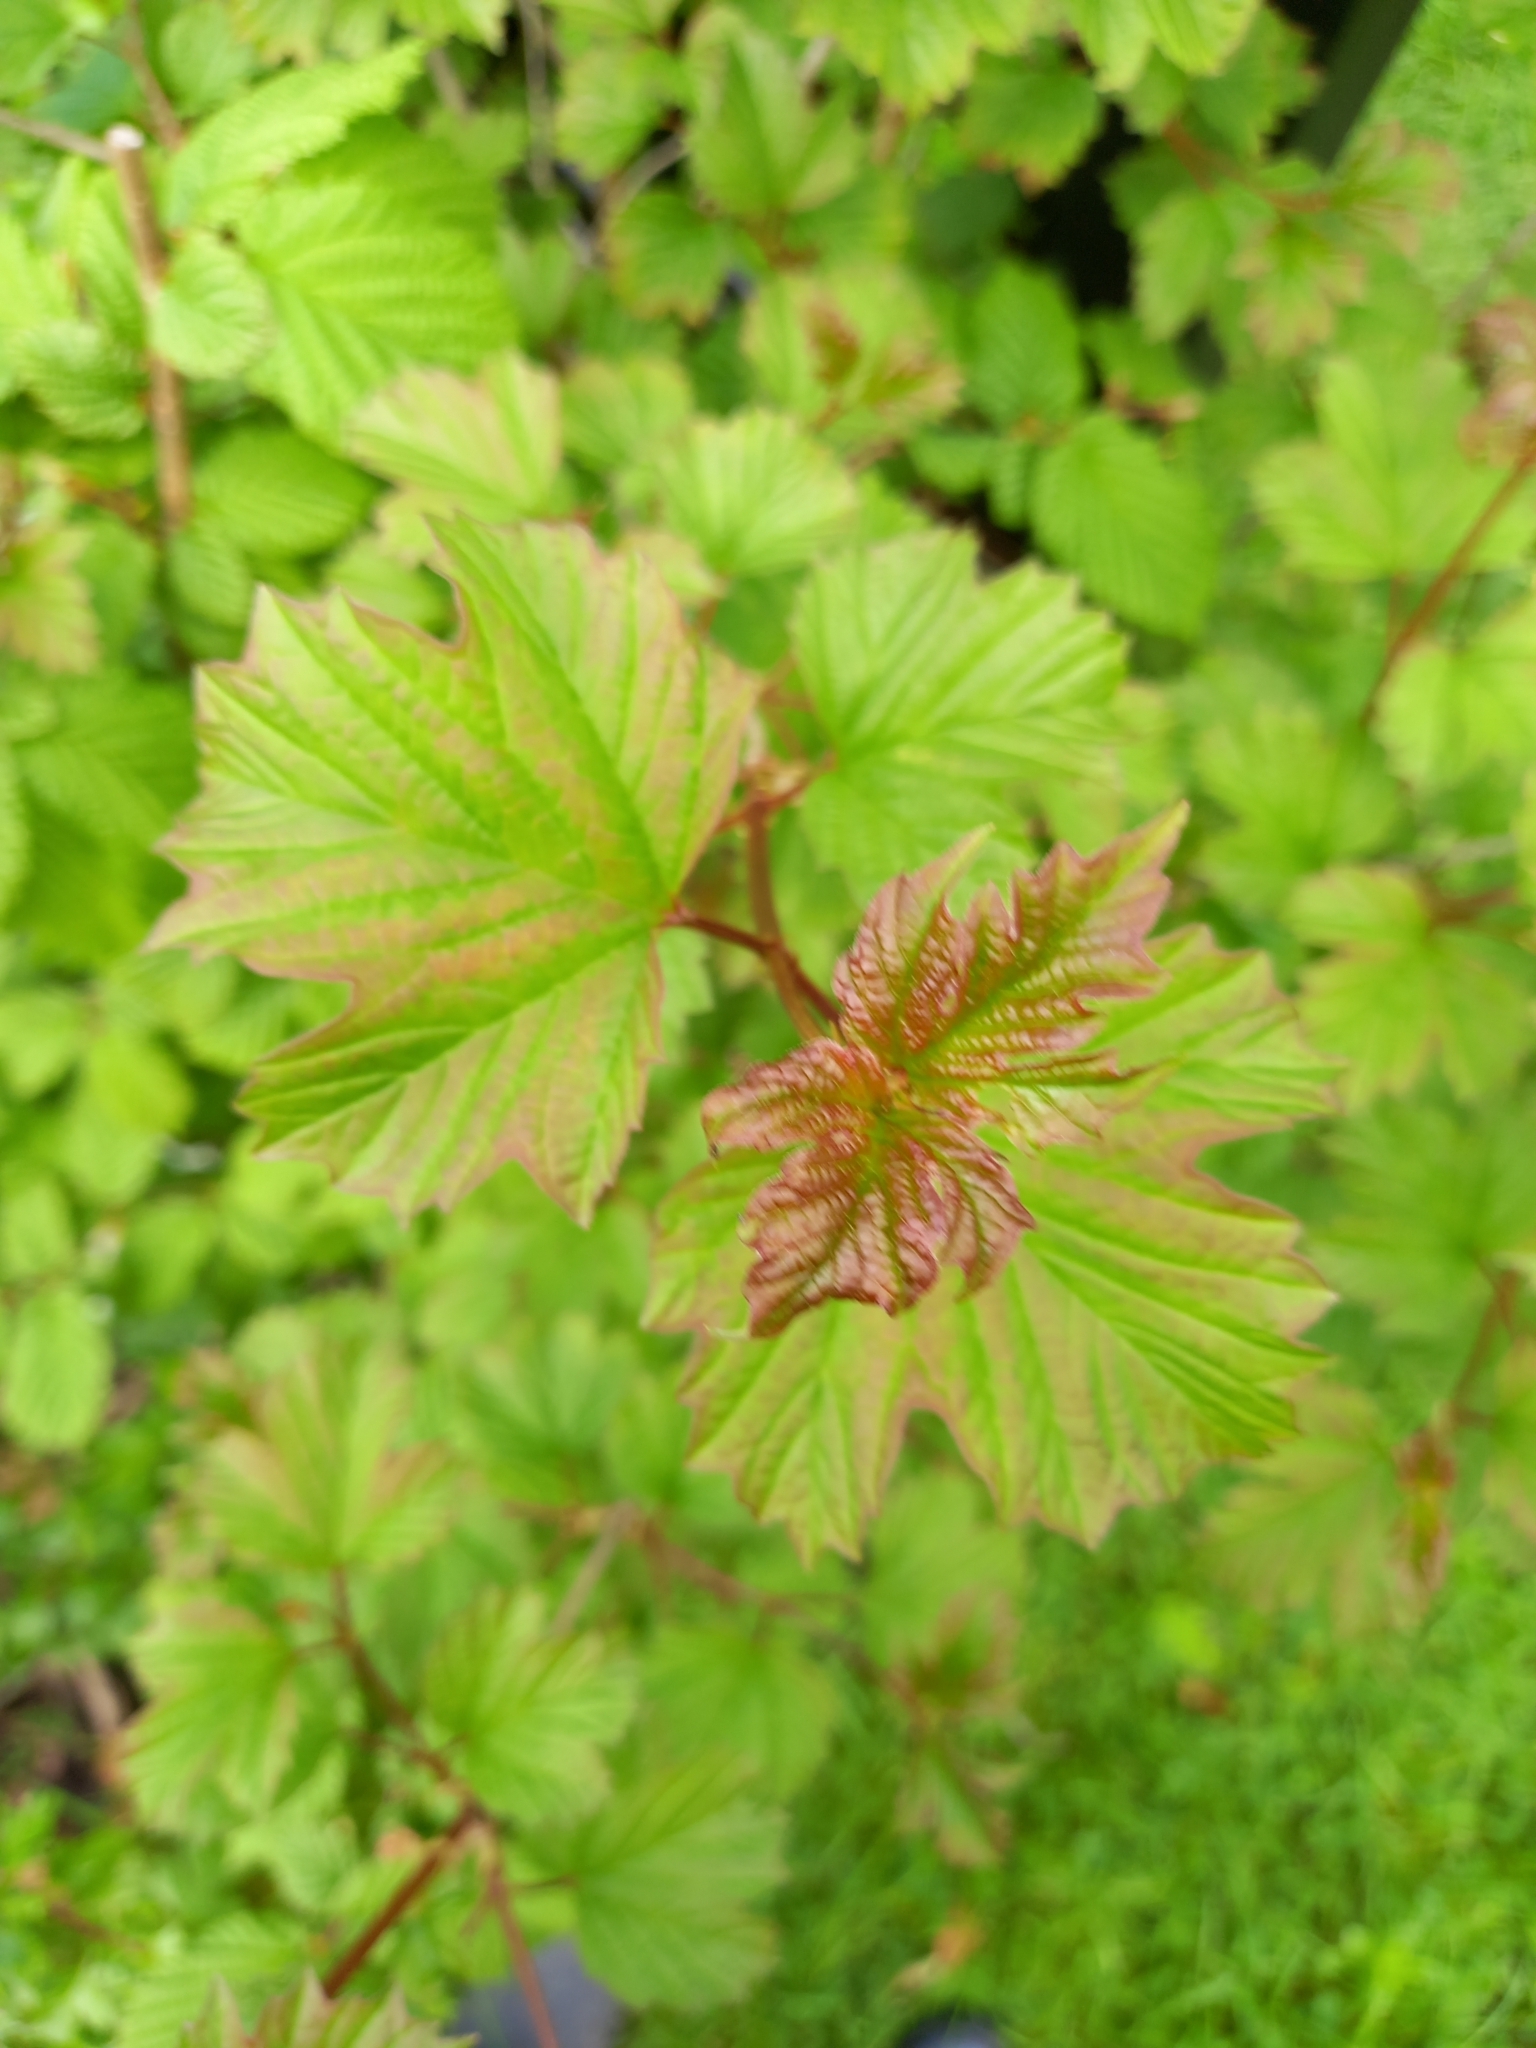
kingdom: Plantae
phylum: Tracheophyta
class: Magnoliopsida
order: Dipsacales
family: Viburnaceae
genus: Viburnum
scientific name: Viburnum opulus
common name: Guelder-rose
